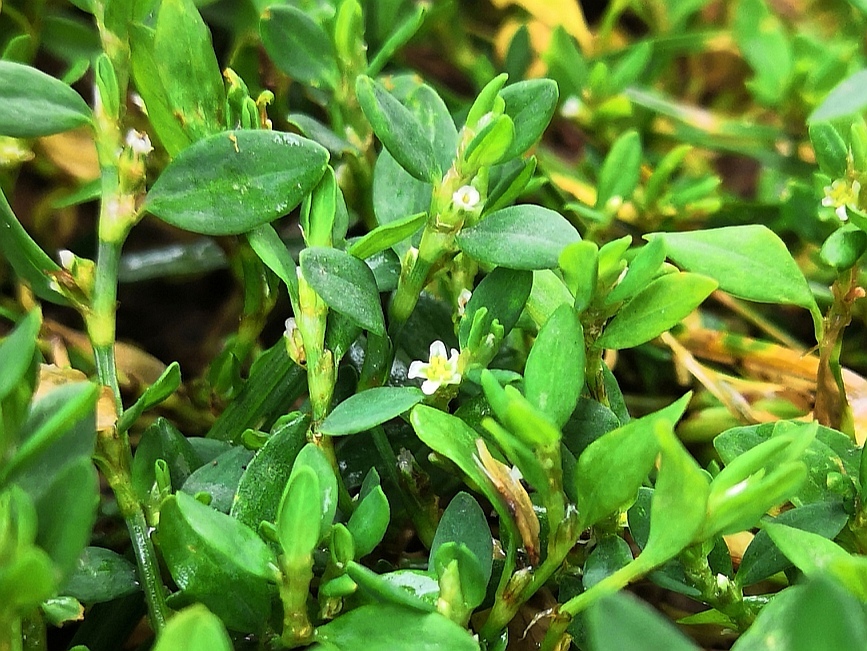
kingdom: Plantae
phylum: Tracheophyta
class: Magnoliopsida
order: Caryophyllales
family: Polygonaceae
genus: Polygonum
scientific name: Polygonum aviculare
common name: Prostrate knotweed
